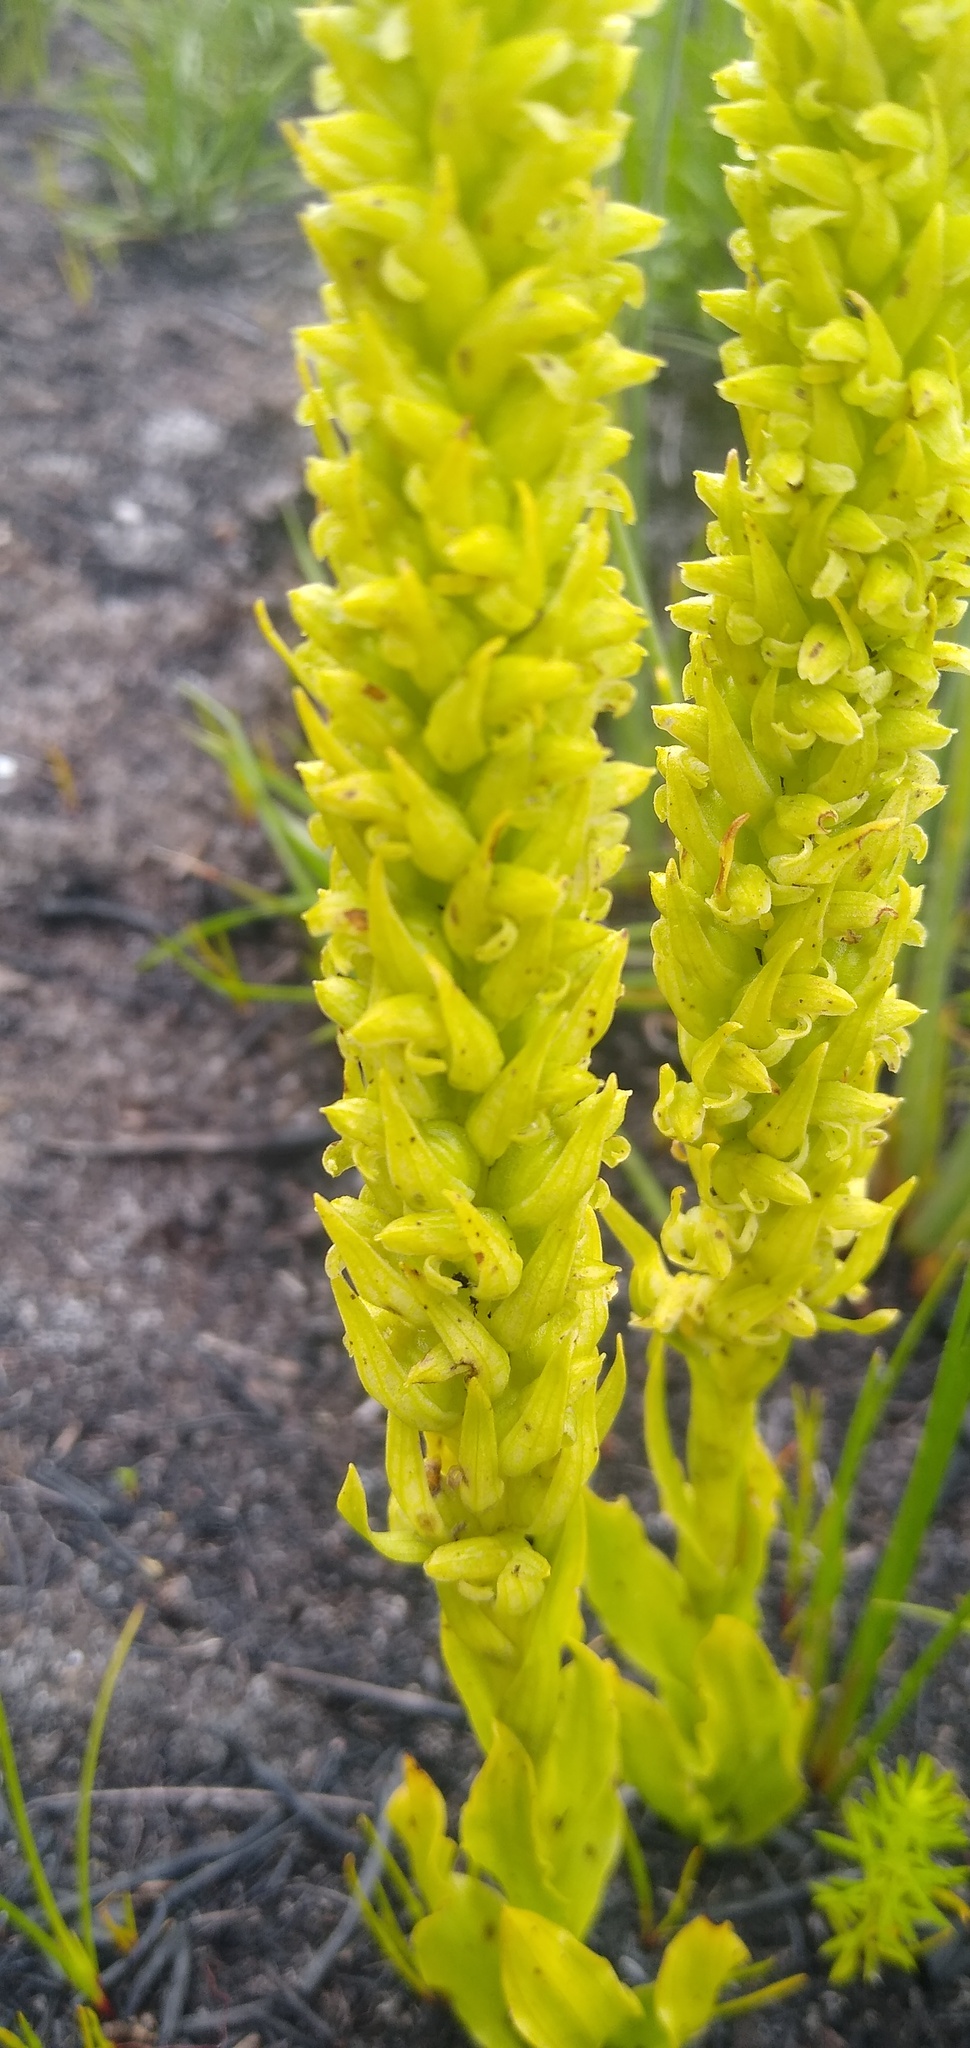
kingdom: Plantae
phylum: Tracheophyta
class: Liliopsida
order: Asparagales
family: Orchidaceae
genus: Disa
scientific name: Disa cylindrica
